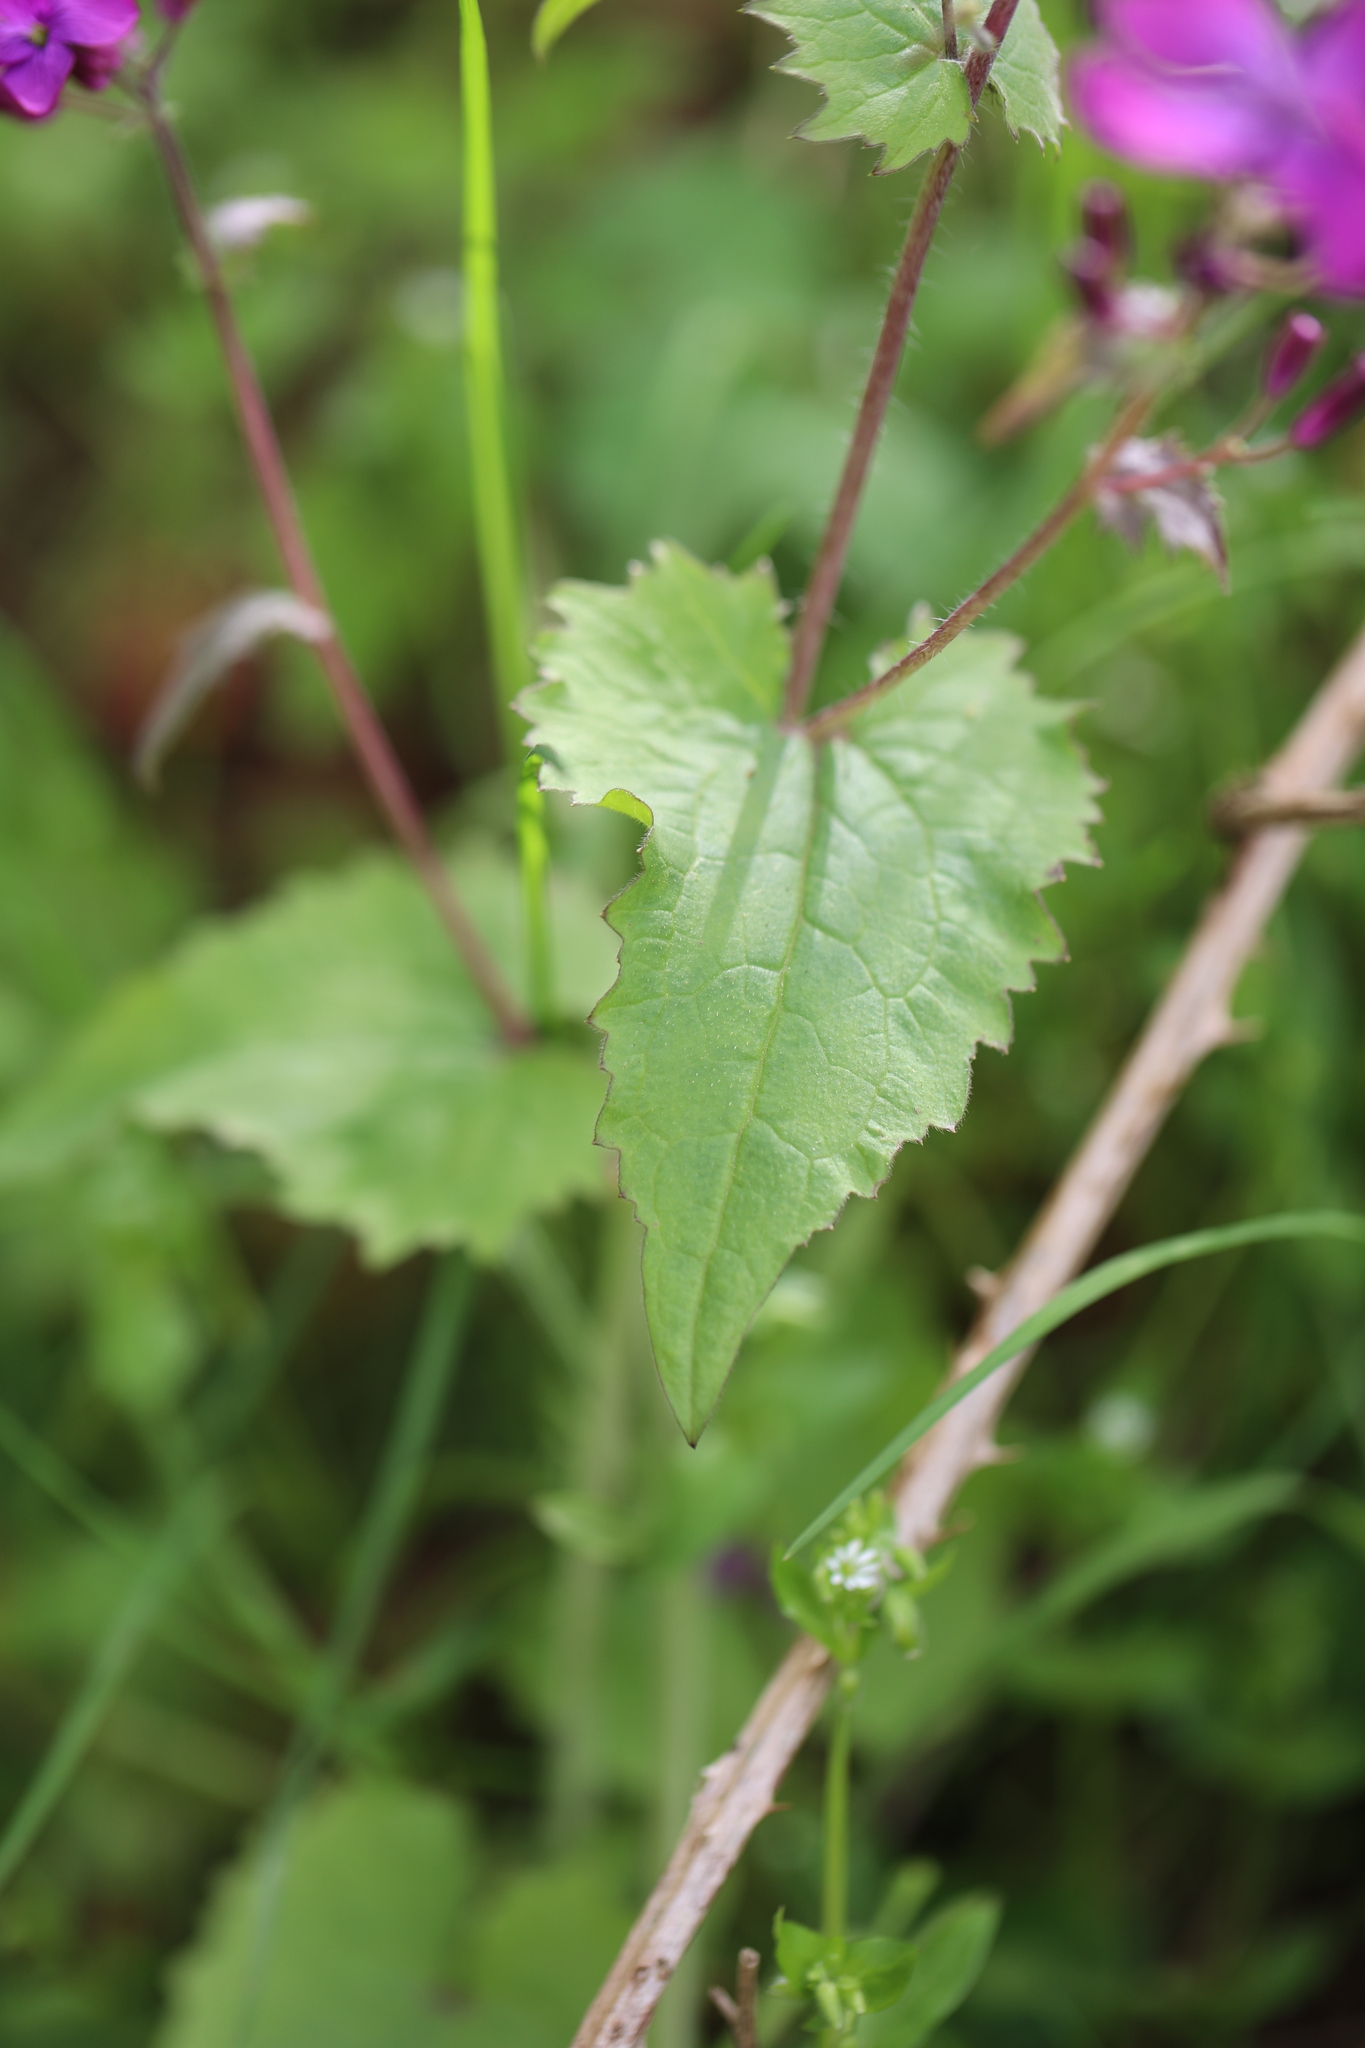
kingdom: Plantae
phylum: Tracheophyta
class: Magnoliopsida
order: Brassicales
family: Brassicaceae
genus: Lunaria
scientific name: Lunaria annua
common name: Honesty
